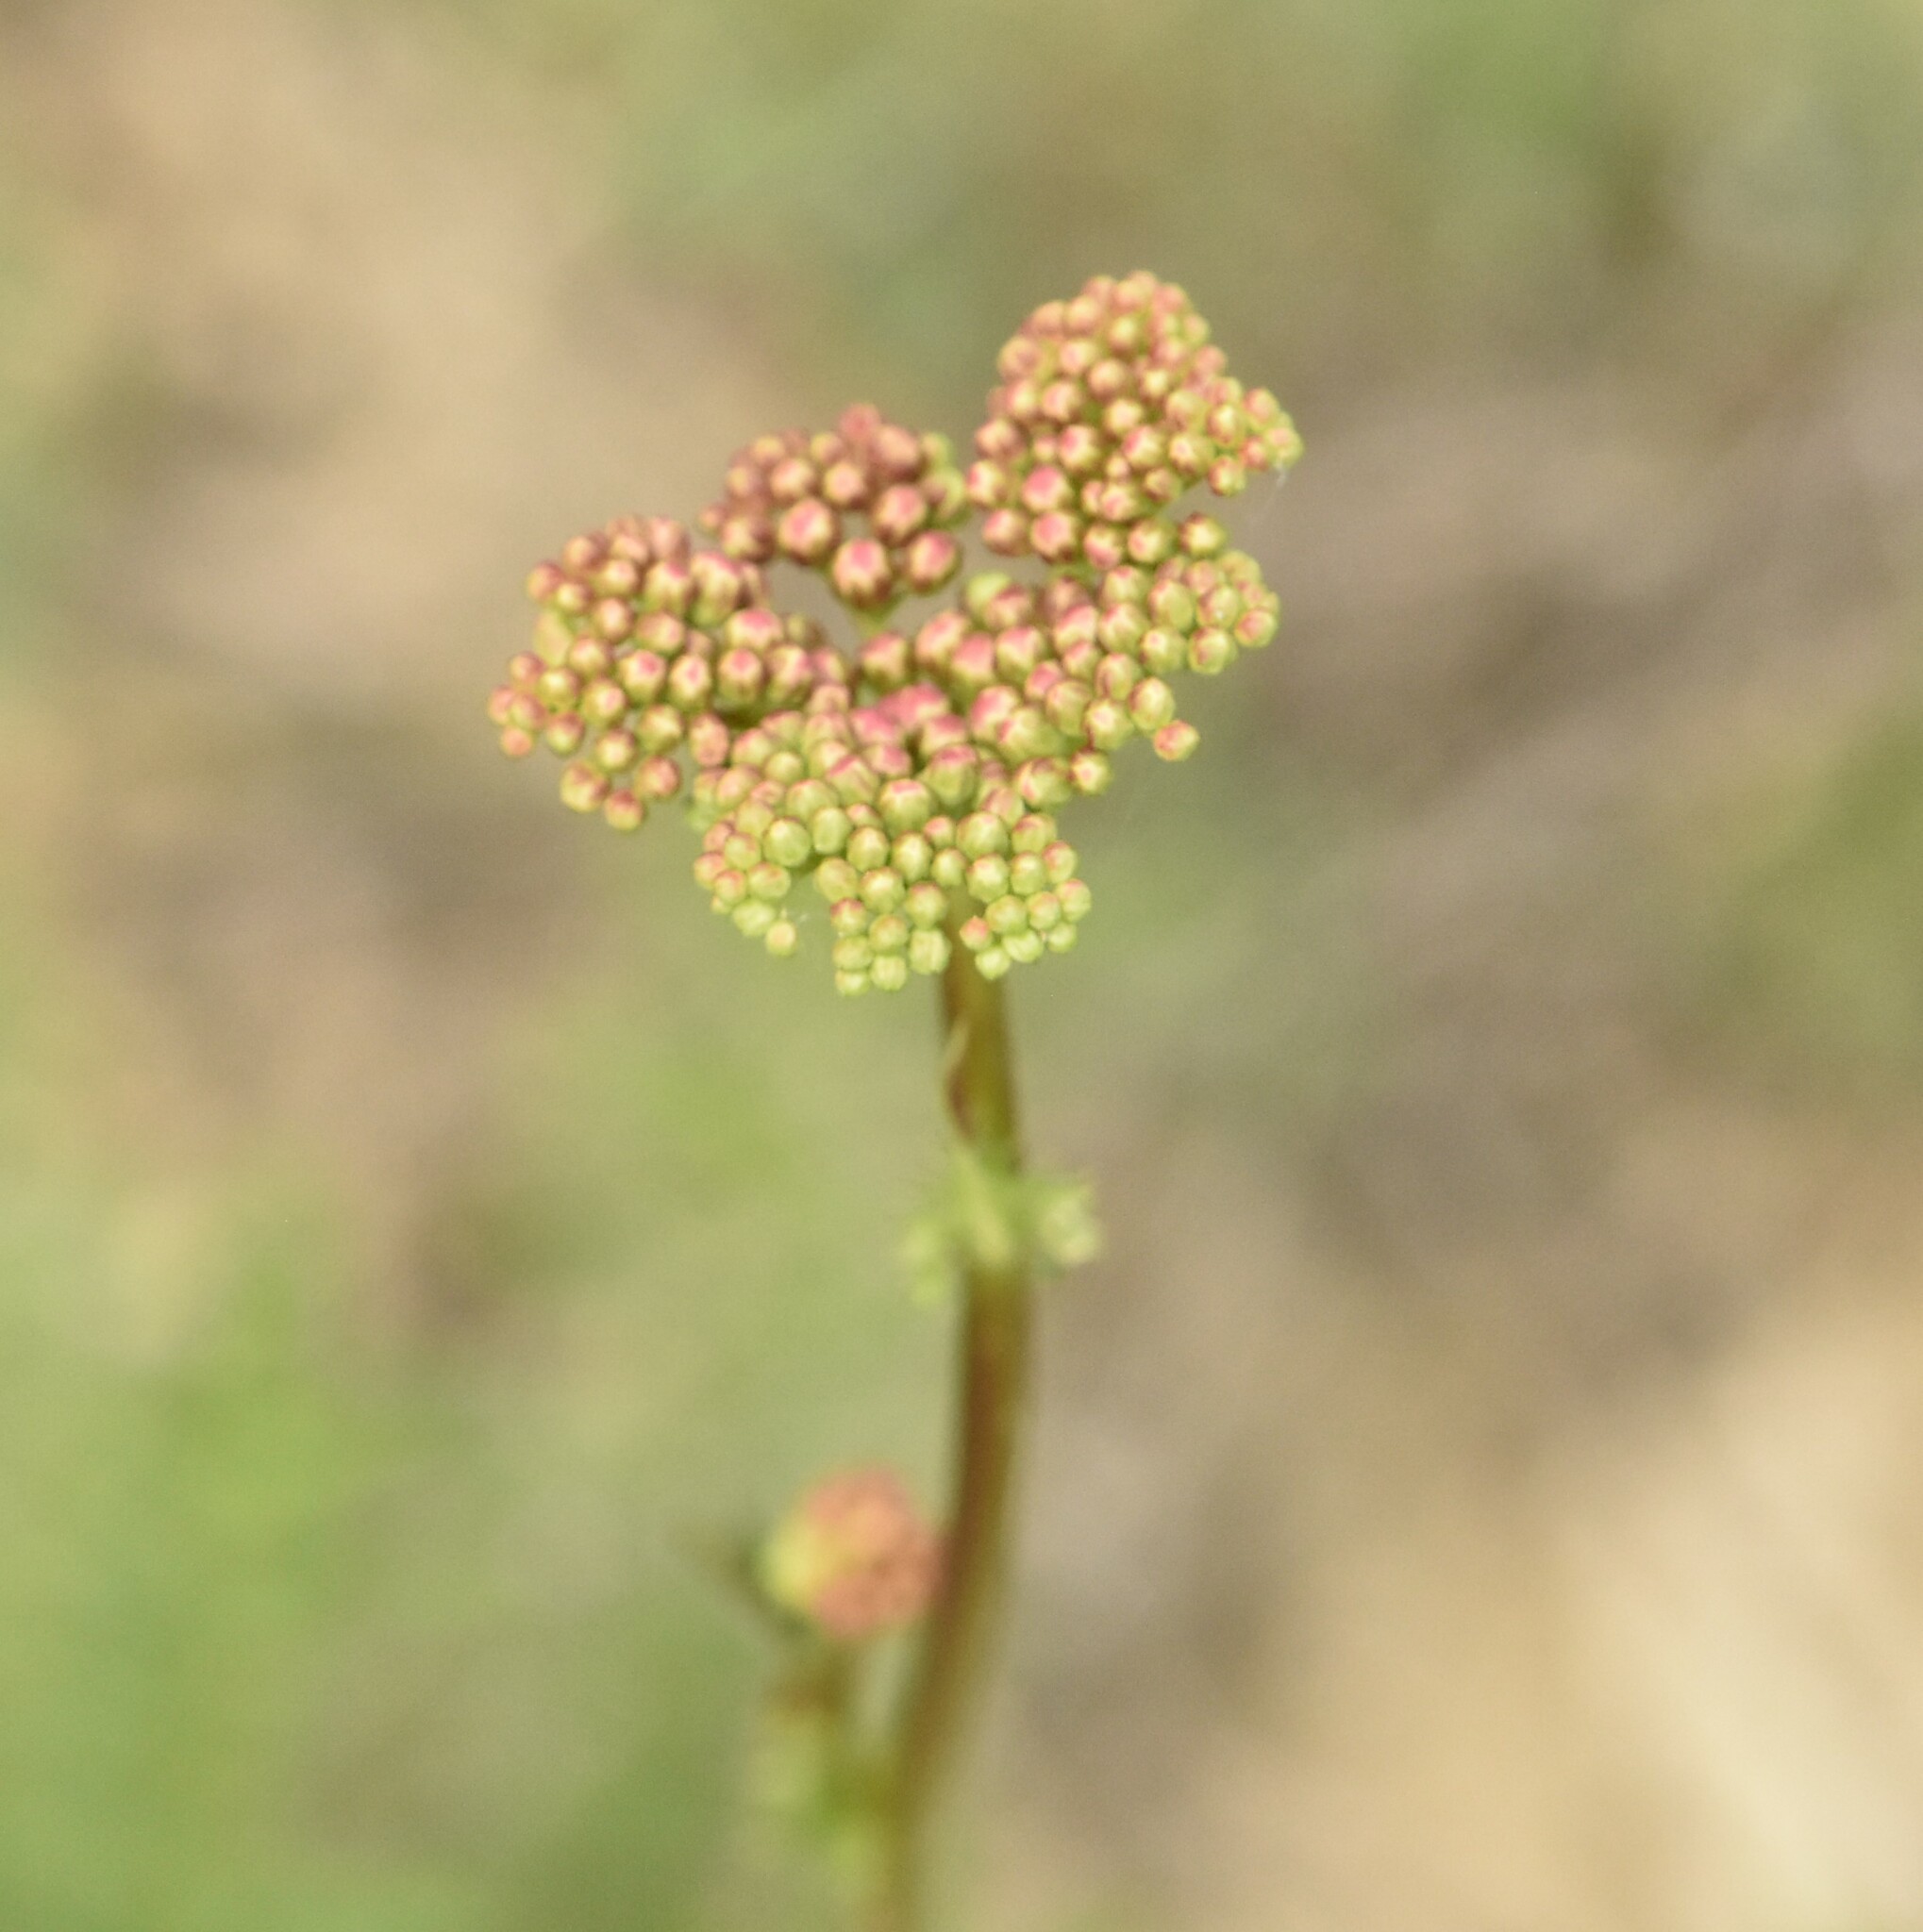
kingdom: Plantae
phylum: Tracheophyta
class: Magnoliopsida
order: Rosales
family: Rosaceae
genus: Filipendula
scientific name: Filipendula vulgaris
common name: Dropwort
